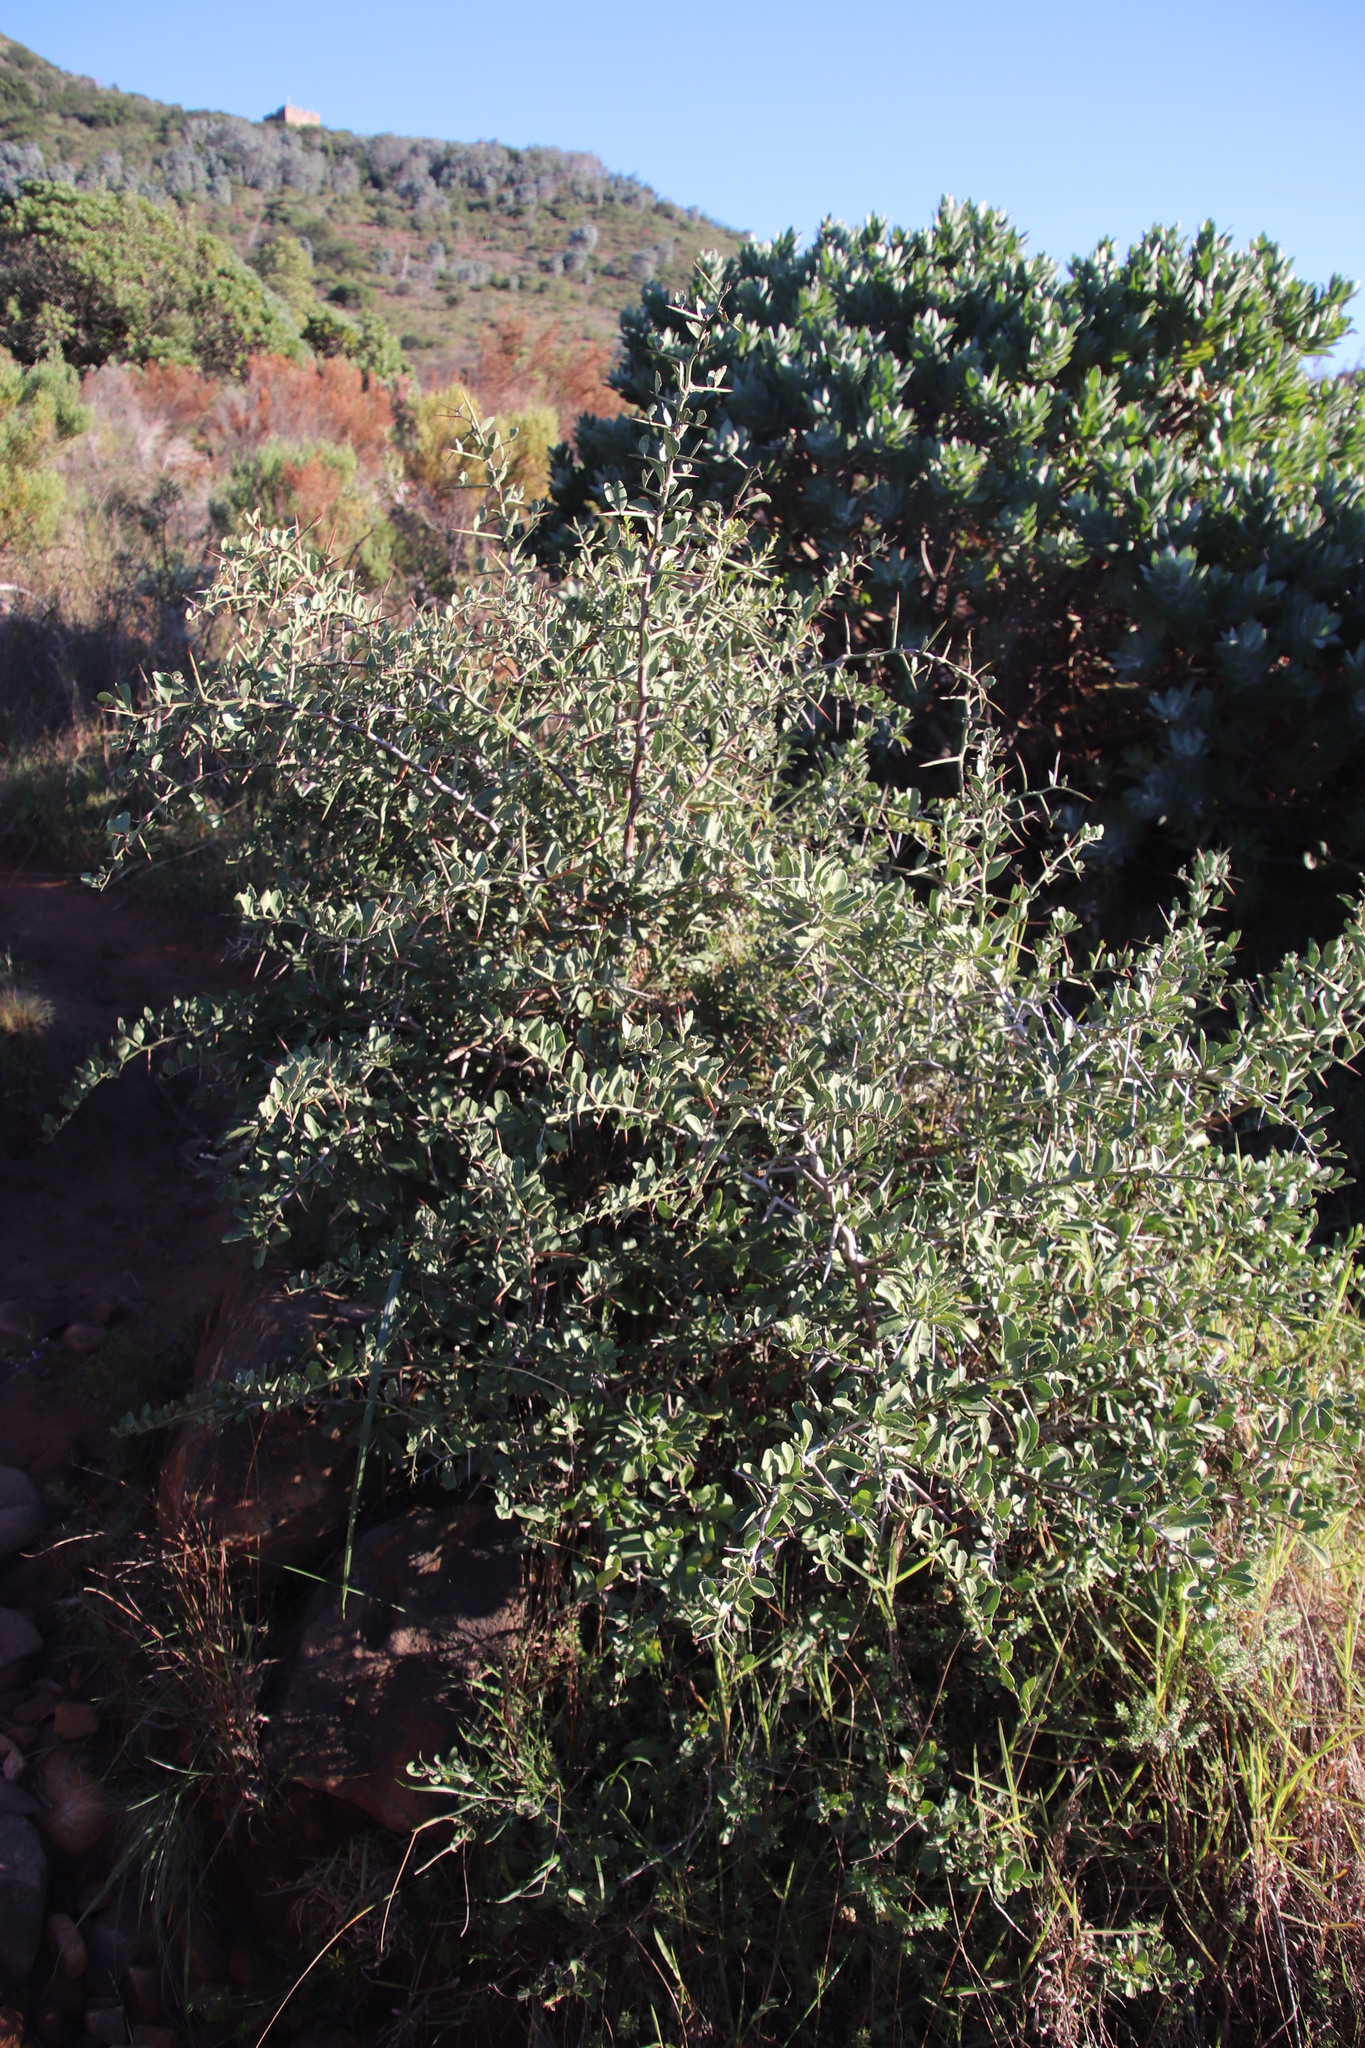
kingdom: Plantae
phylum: Tracheophyta
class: Magnoliopsida
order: Celastrales
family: Celastraceae
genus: Gymnosporia
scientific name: Gymnosporia buxifolia
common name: Common spike-thorn
